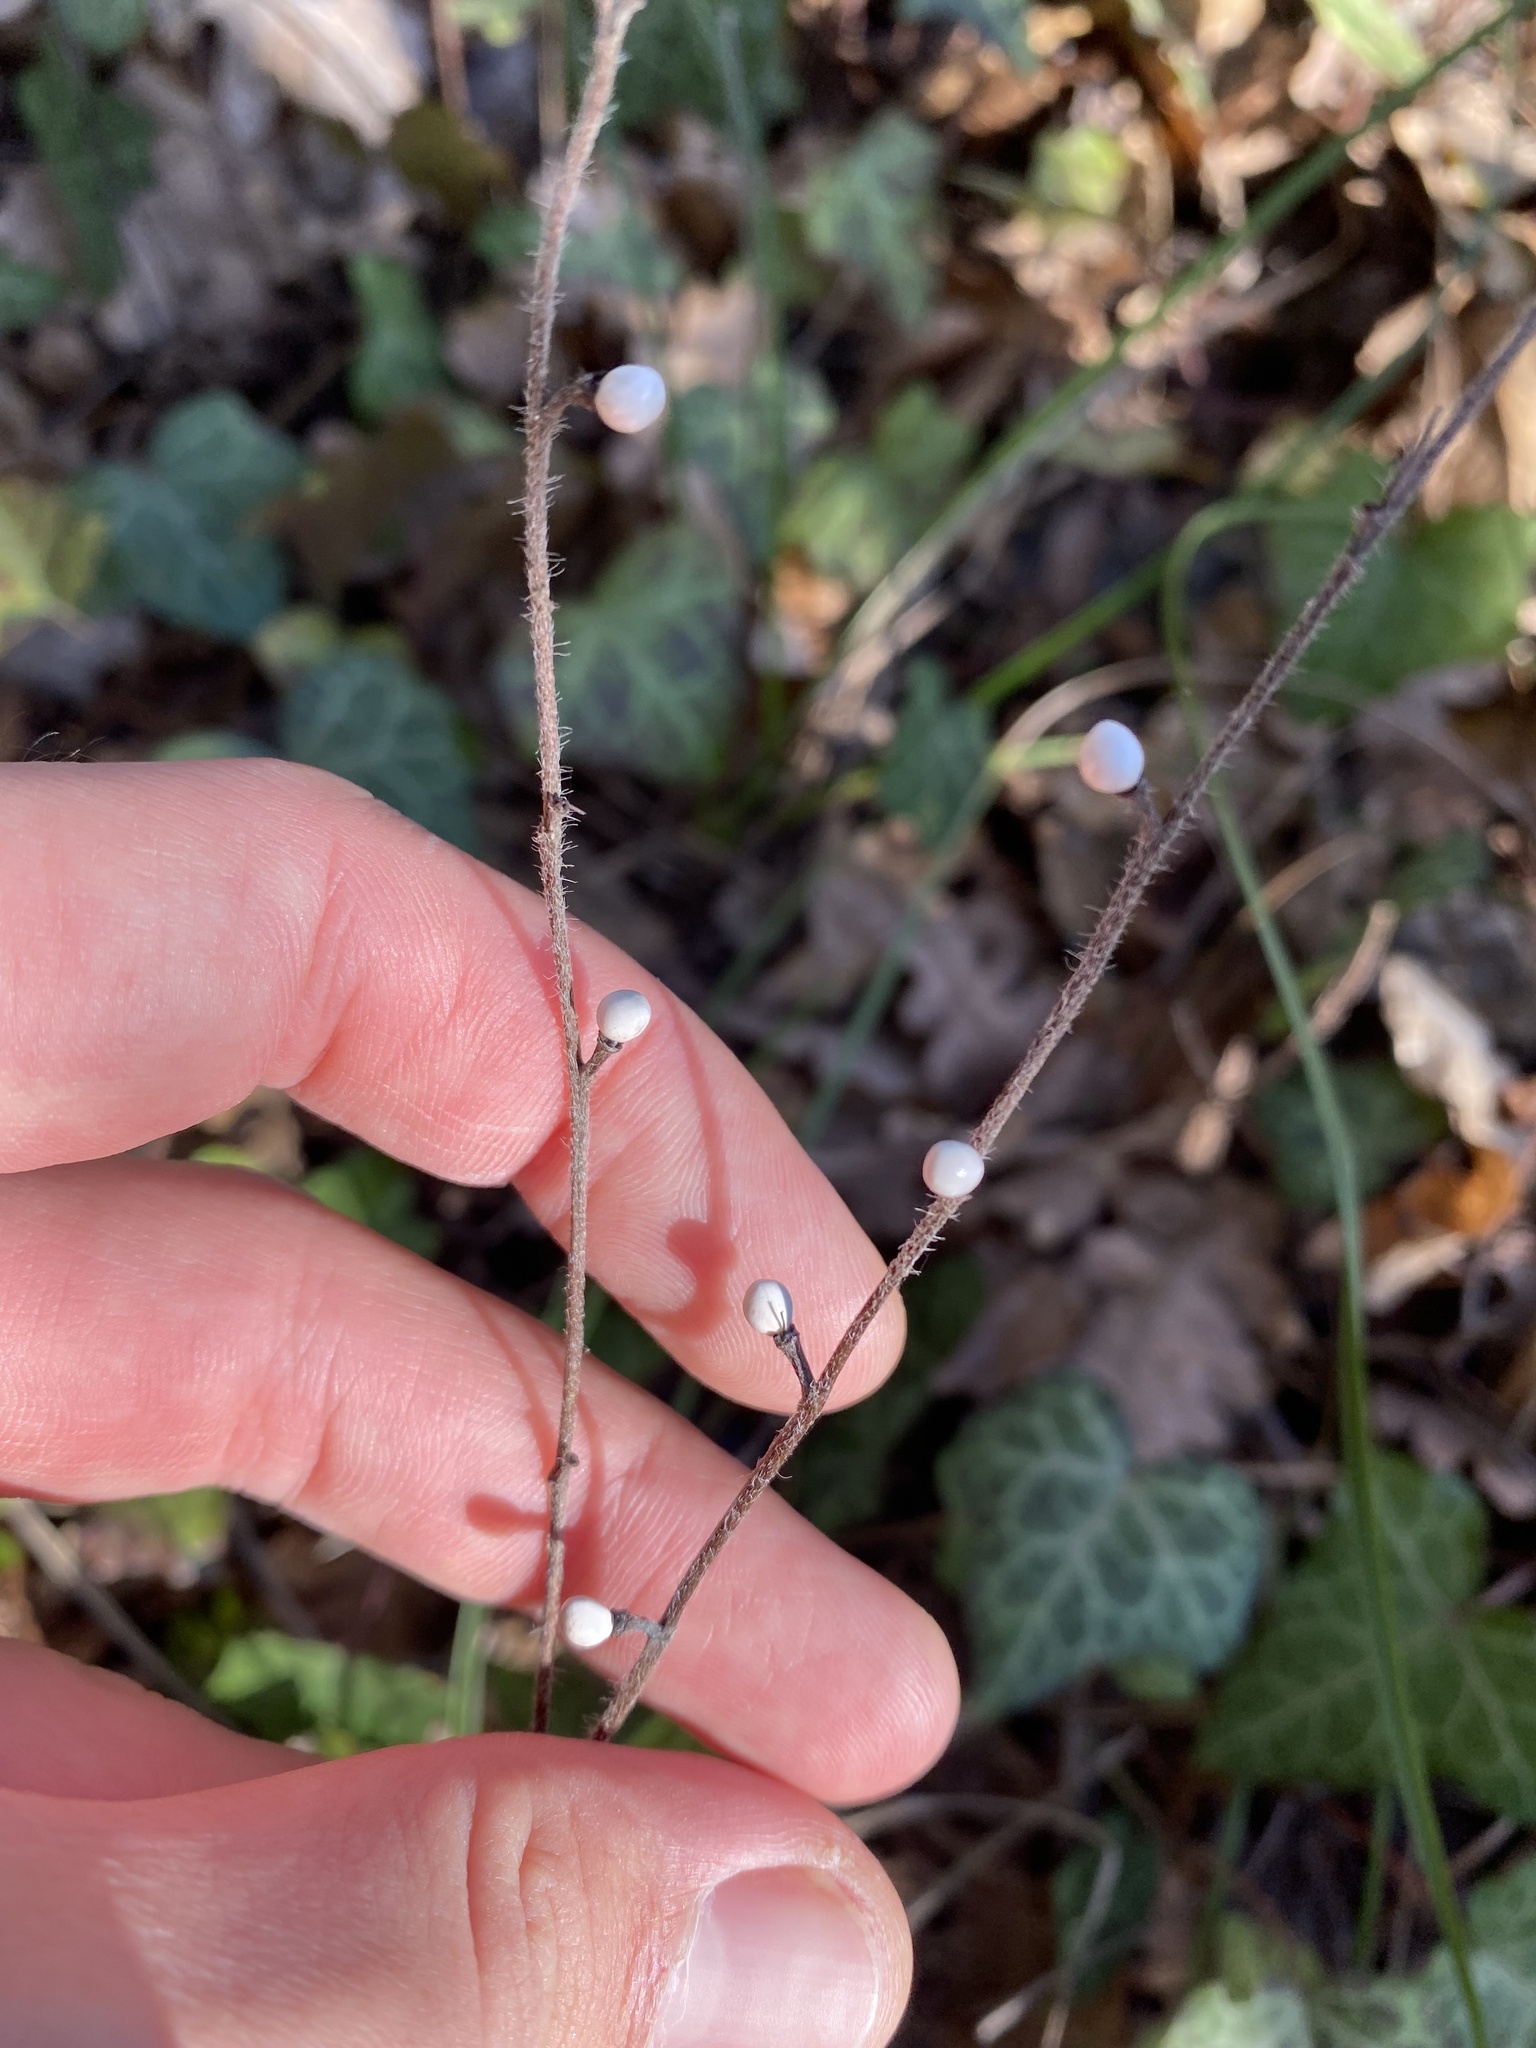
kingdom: Plantae
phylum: Tracheophyta
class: Magnoliopsida
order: Boraginales
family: Boraginaceae
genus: Aegonychon
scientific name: Aegonychon purpurocaeruleum
